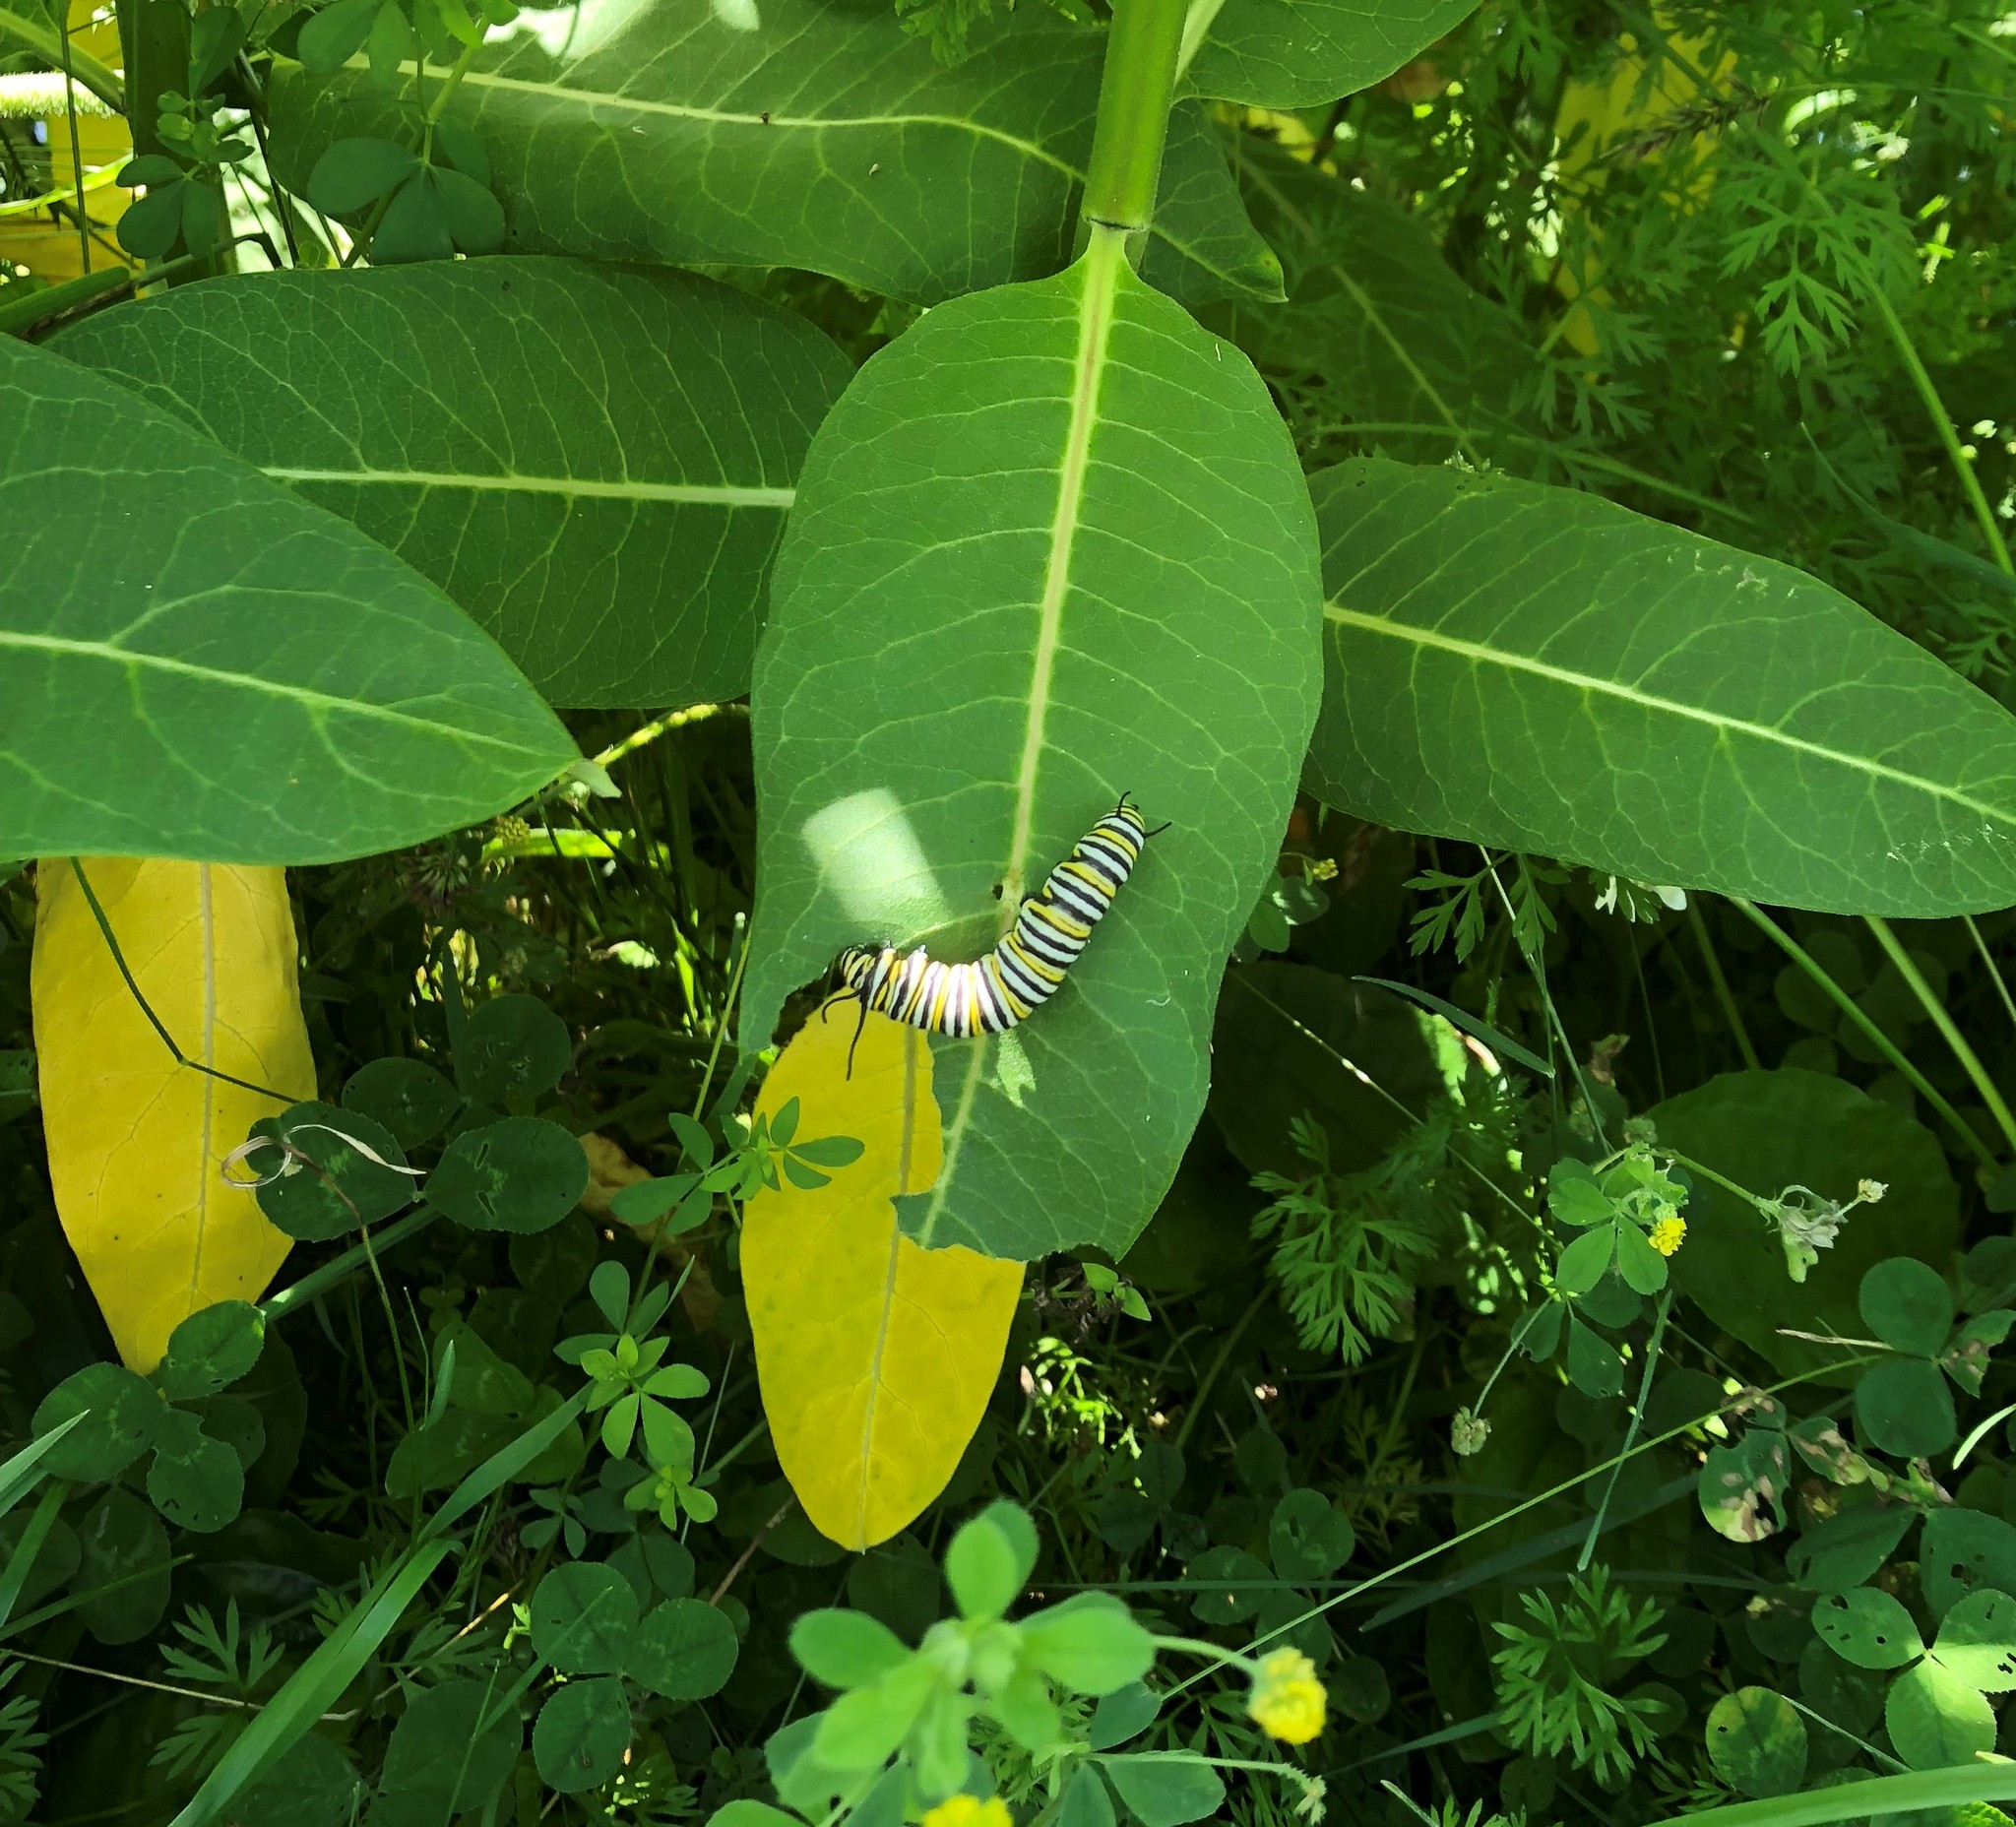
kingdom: Animalia
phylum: Arthropoda
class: Insecta
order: Lepidoptera
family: Nymphalidae
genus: Danaus
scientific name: Danaus plexippus
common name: Monarch
